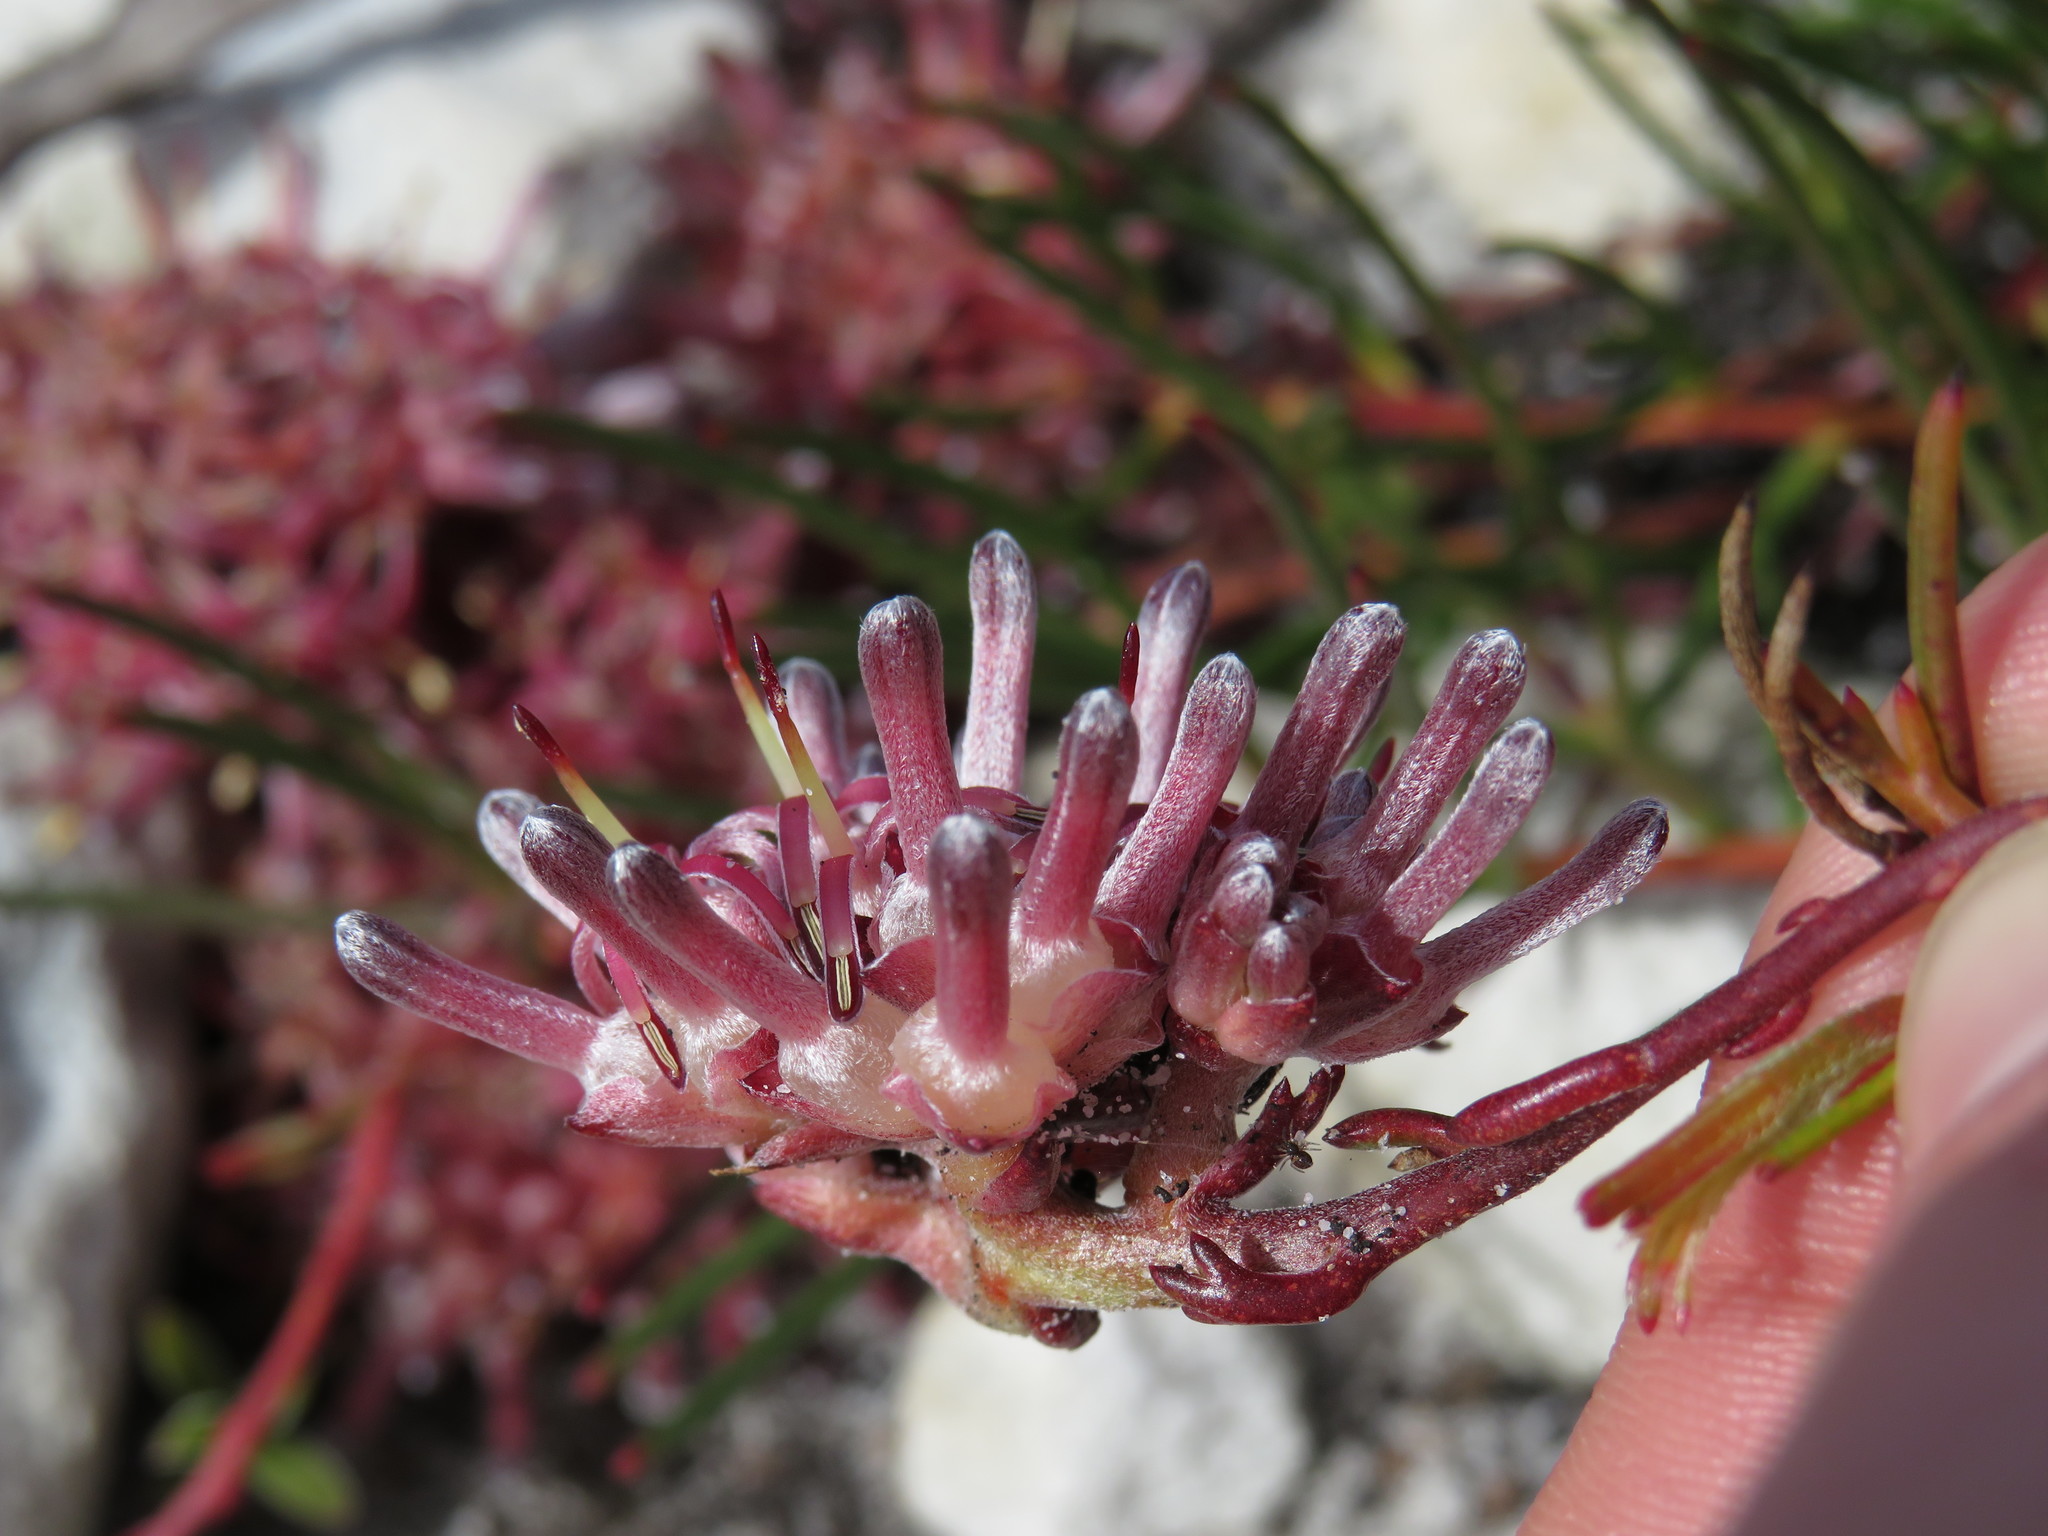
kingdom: Plantae
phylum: Tracheophyta
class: Magnoliopsida
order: Proteales
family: Proteaceae
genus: Serruria
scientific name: Serruria decumbens
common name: Peninsula spiderhead
